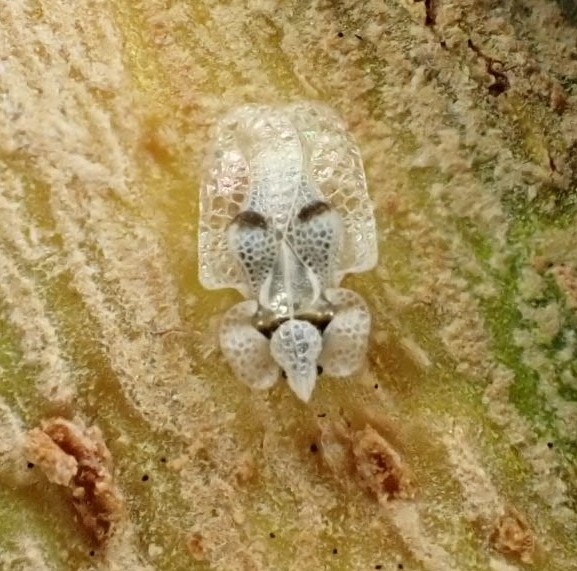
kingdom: Animalia
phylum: Arthropoda
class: Insecta
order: Hemiptera
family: Tingidae
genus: Corythucha
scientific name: Corythucha ciliata
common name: Sycamore lace bug
